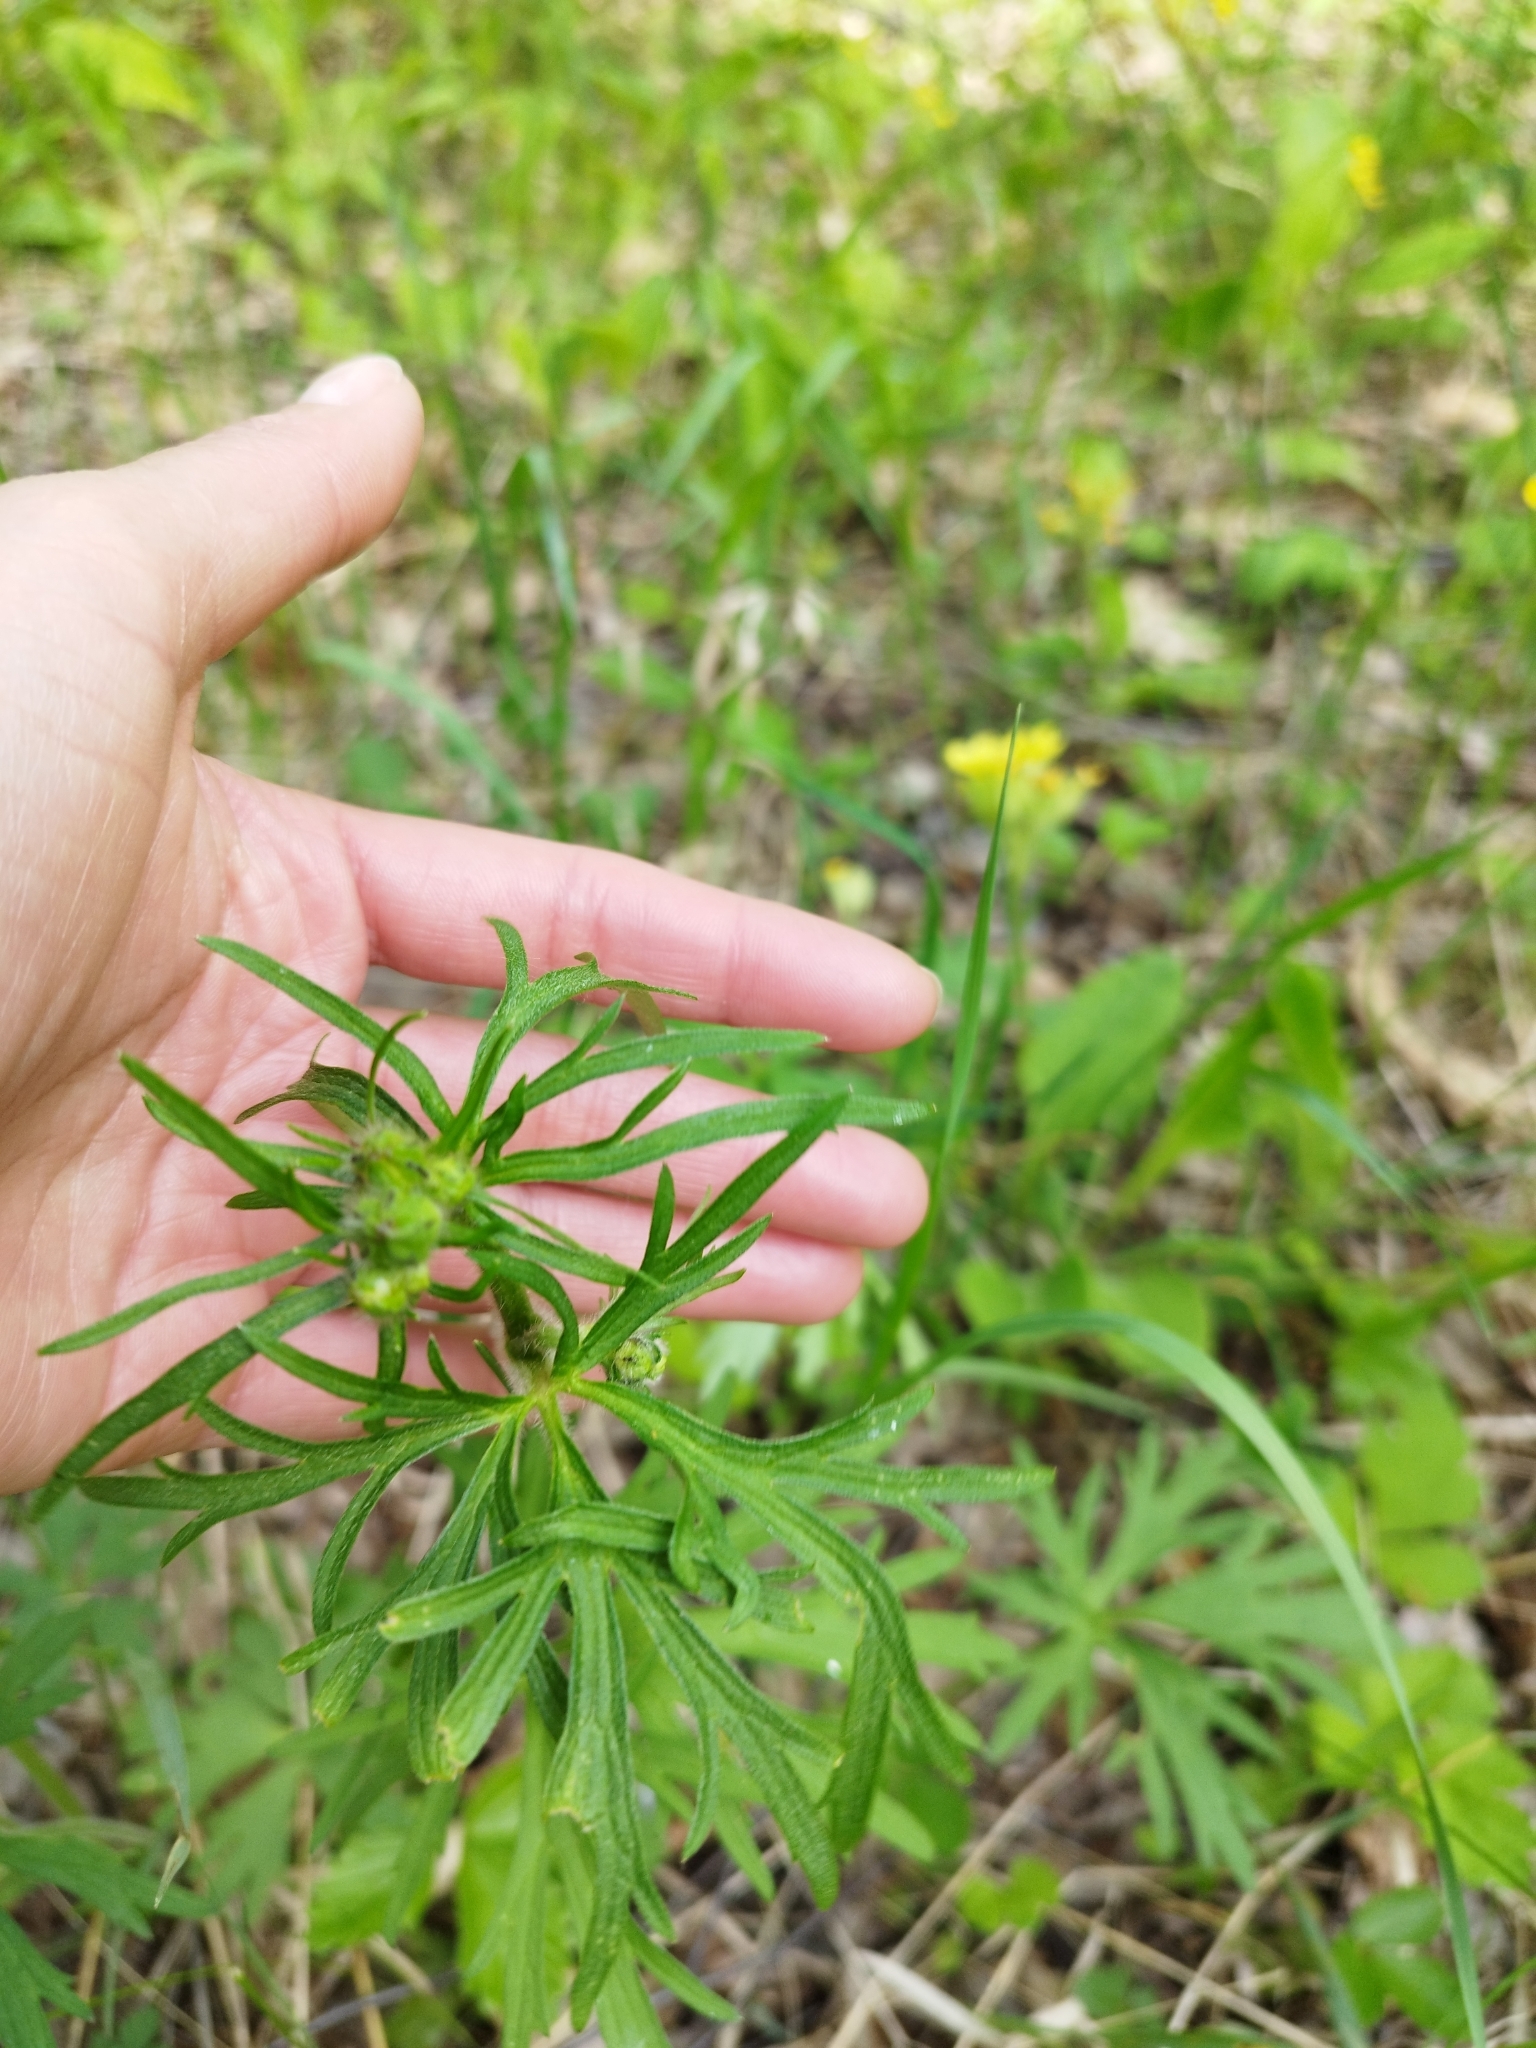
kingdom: Plantae
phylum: Tracheophyta
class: Magnoliopsida
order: Ranunculales
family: Ranunculaceae
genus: Ranunculus
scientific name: Ranunculus polyanthemos
